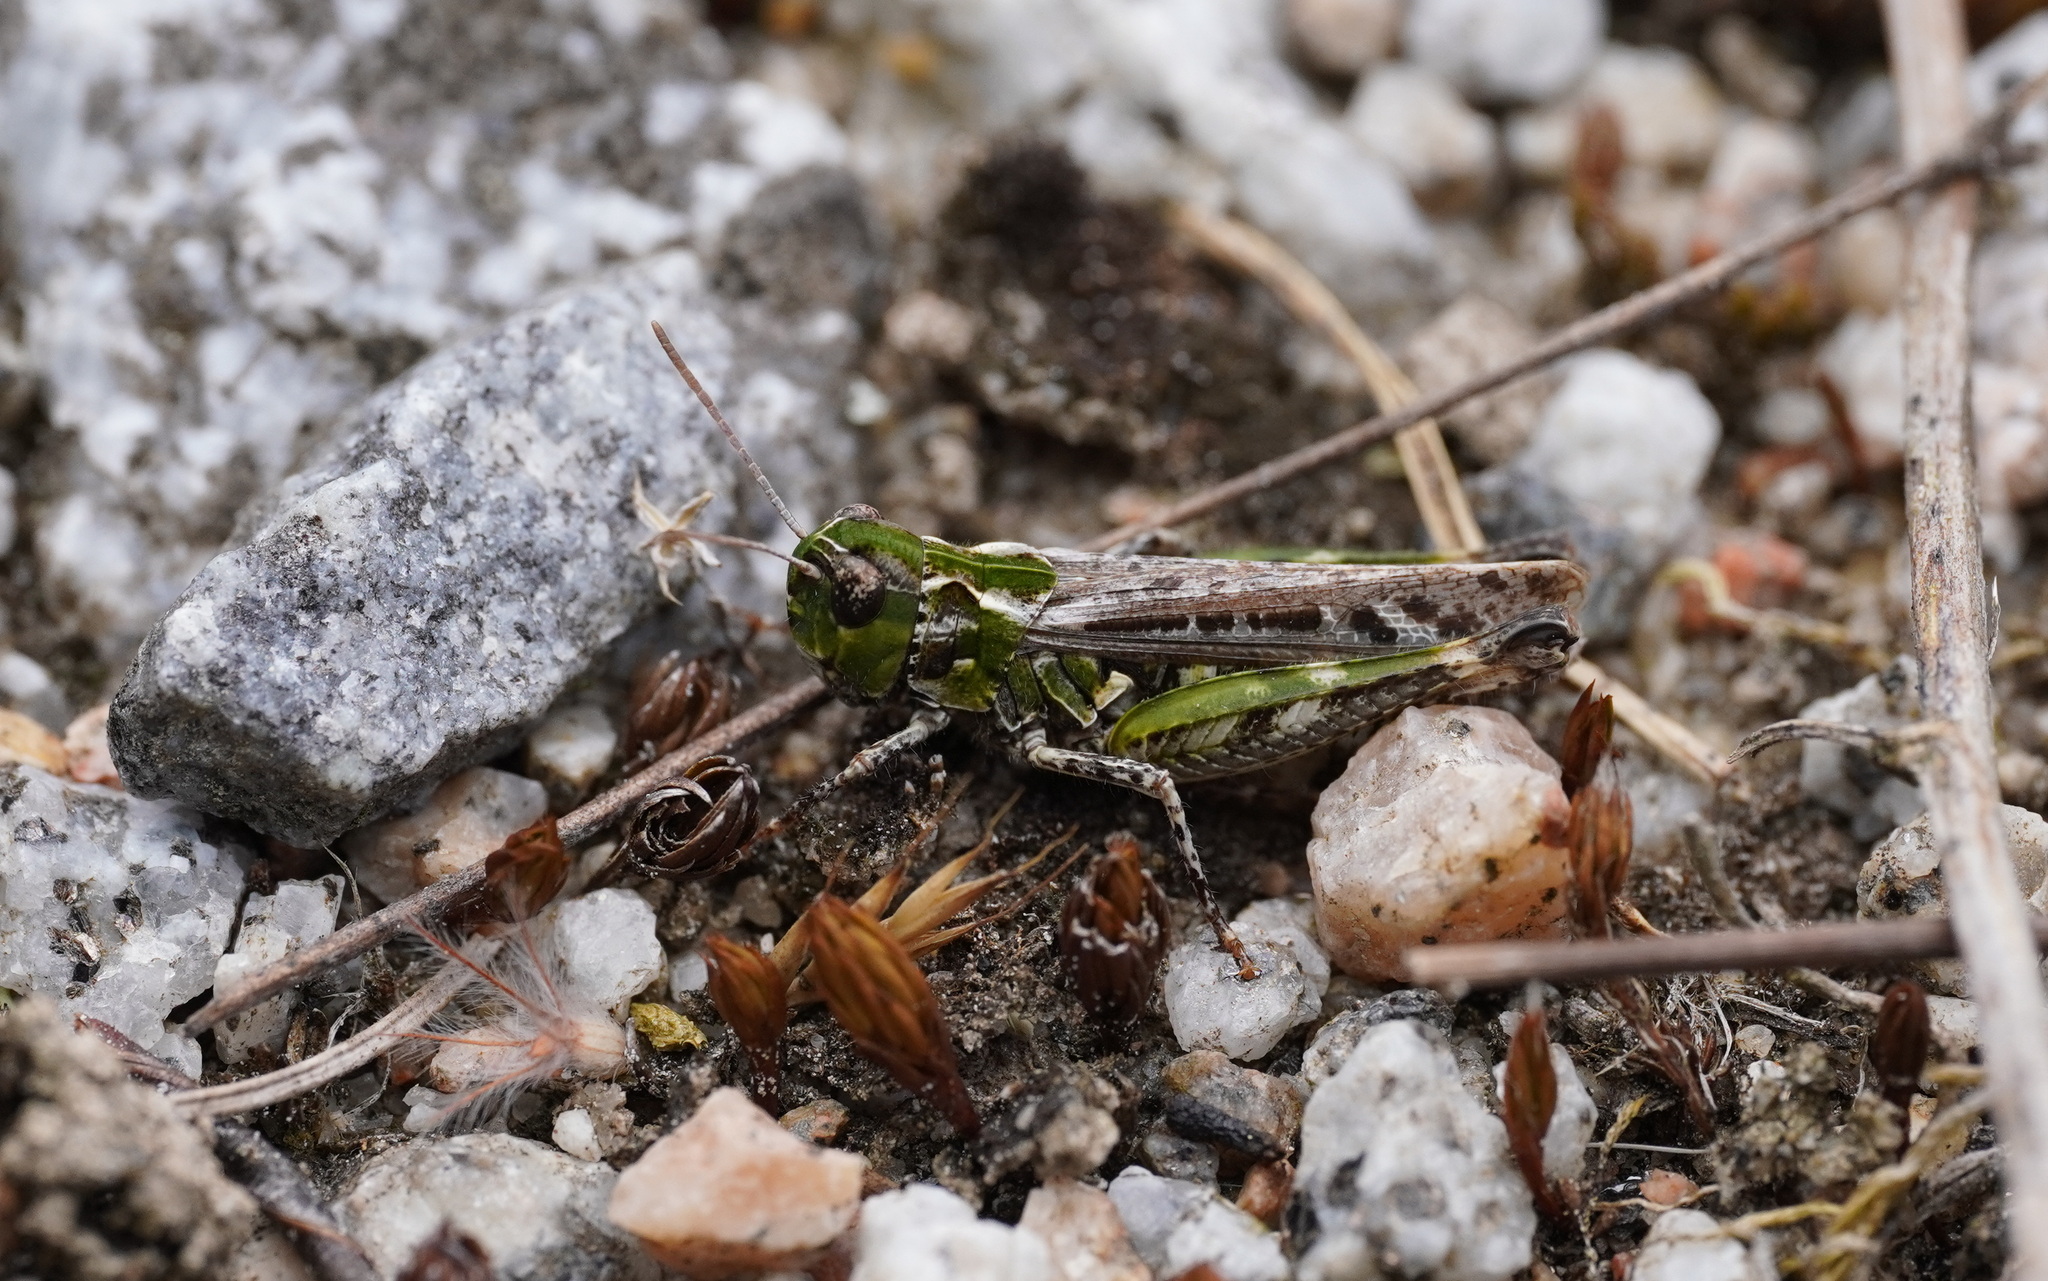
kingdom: Animalia
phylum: Arthropoda
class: Insecta
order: Orthoptera
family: Acrididae
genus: Myrmeleotettix
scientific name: Myrmeleotettix maculatus
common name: Mottled grasshopper
